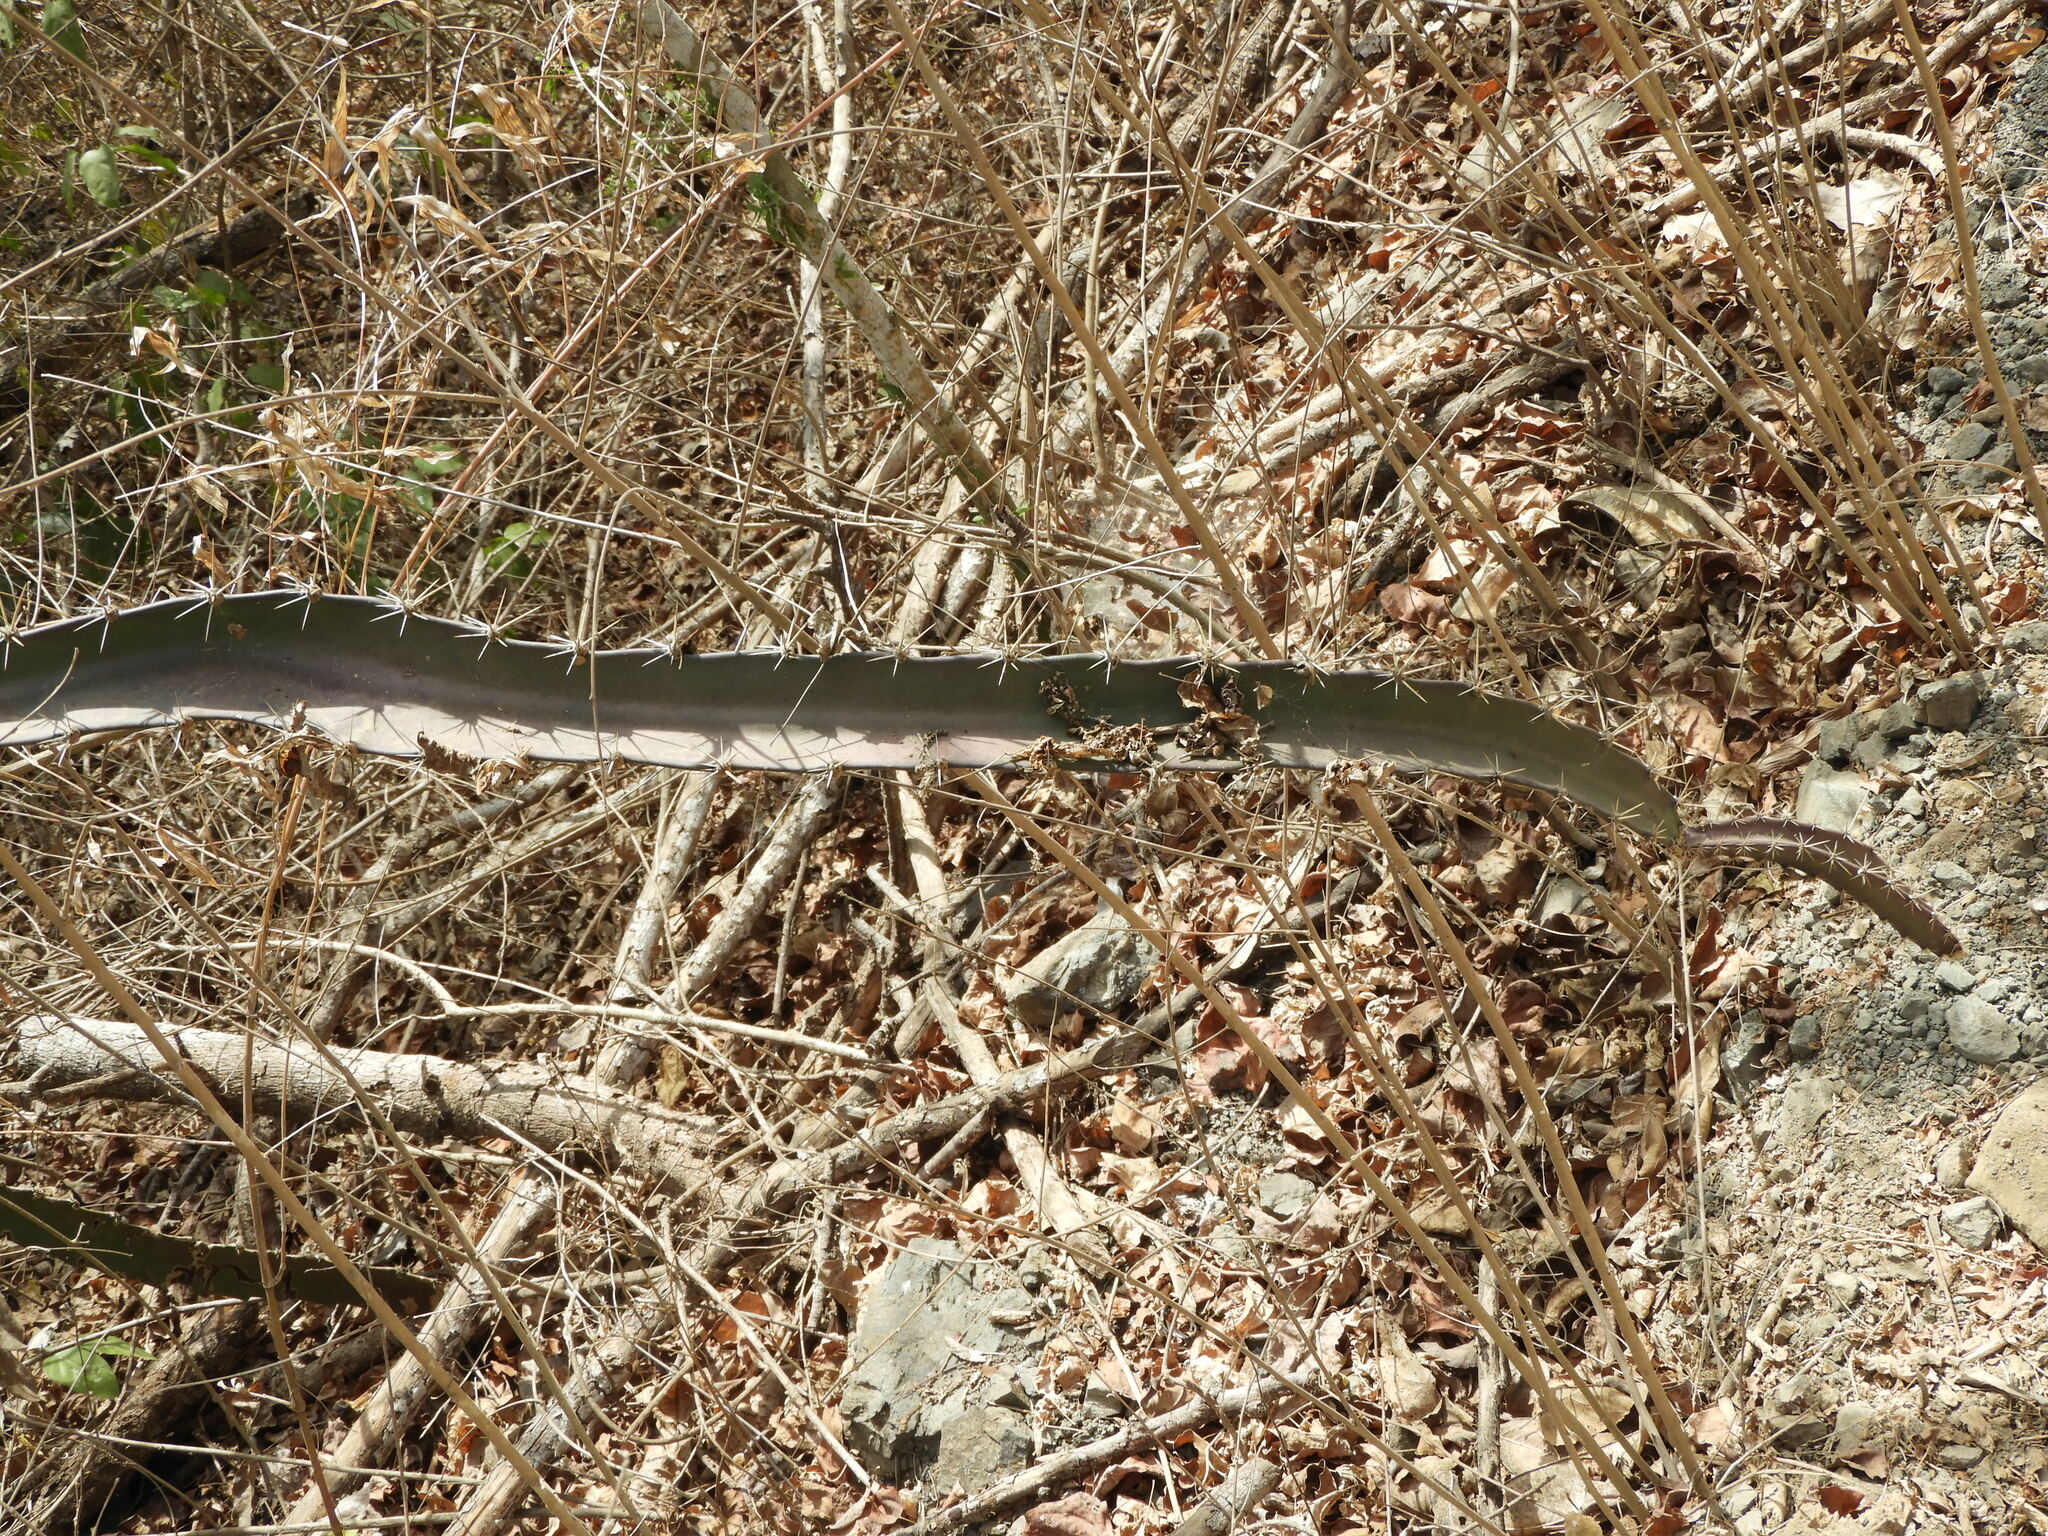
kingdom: Plantae
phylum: Tracheophyta
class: Magnoliopsida
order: Caryophyllales
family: Cactaceae
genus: Acanthocereus
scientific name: Acanthocereus tetragonus
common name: Triangle cactus
